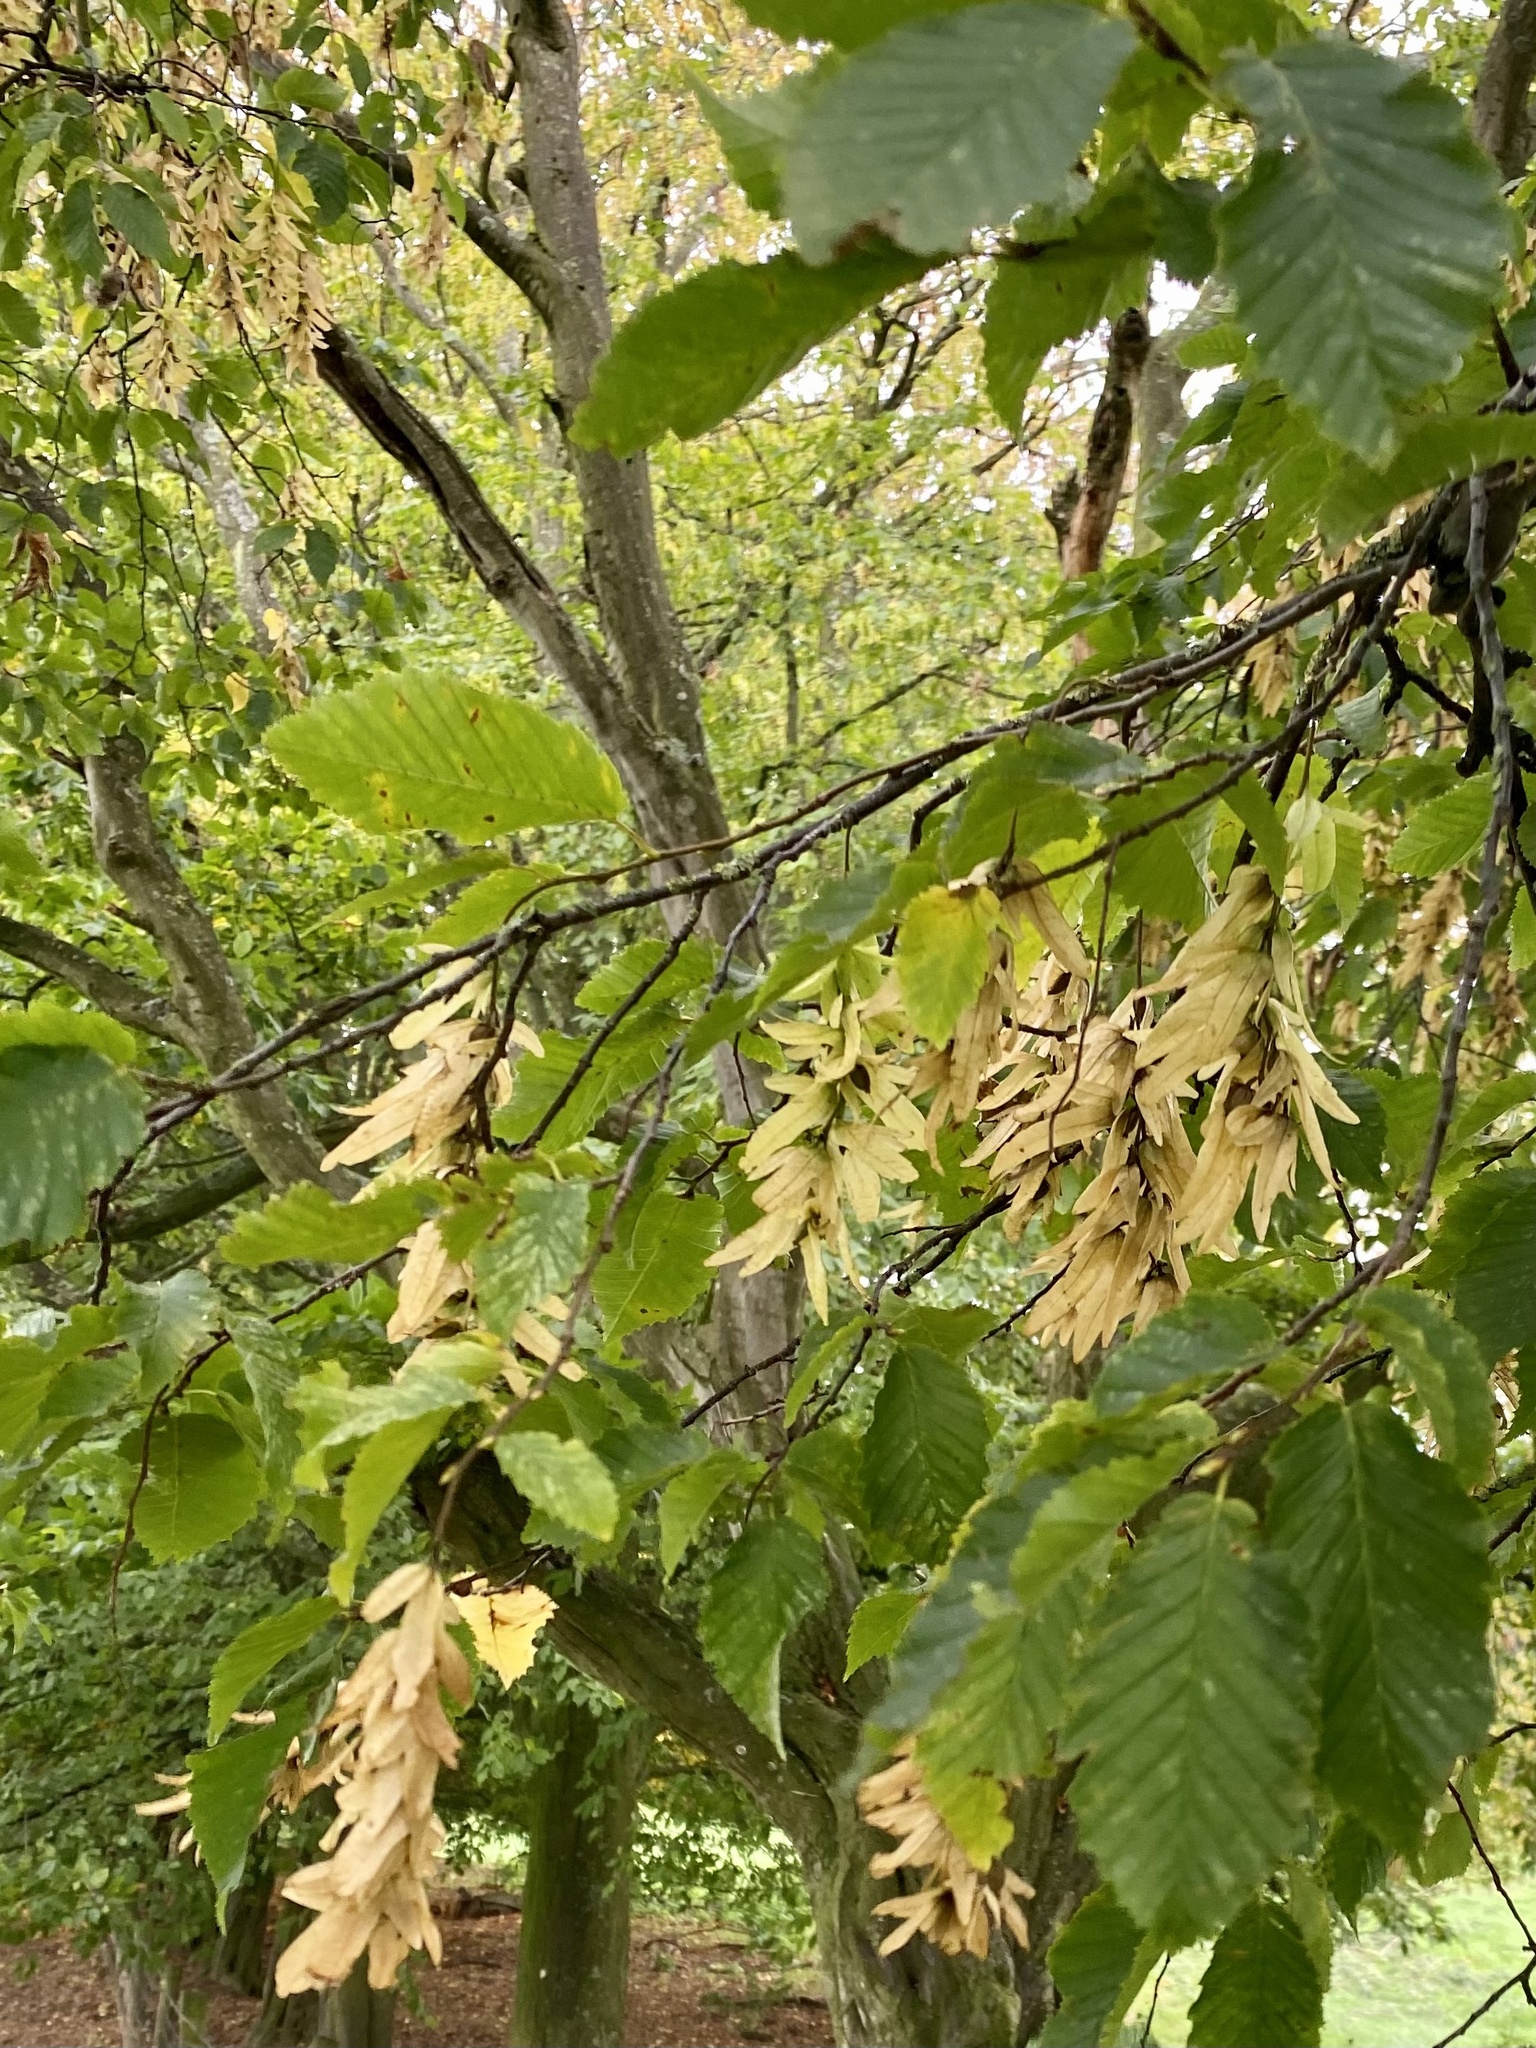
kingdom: Plantae
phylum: Tracheophyta
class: Magnoliopsida
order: Fagales
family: Betulaceae
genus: Carpinus
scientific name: Carpinus betulus
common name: Hornbeam
